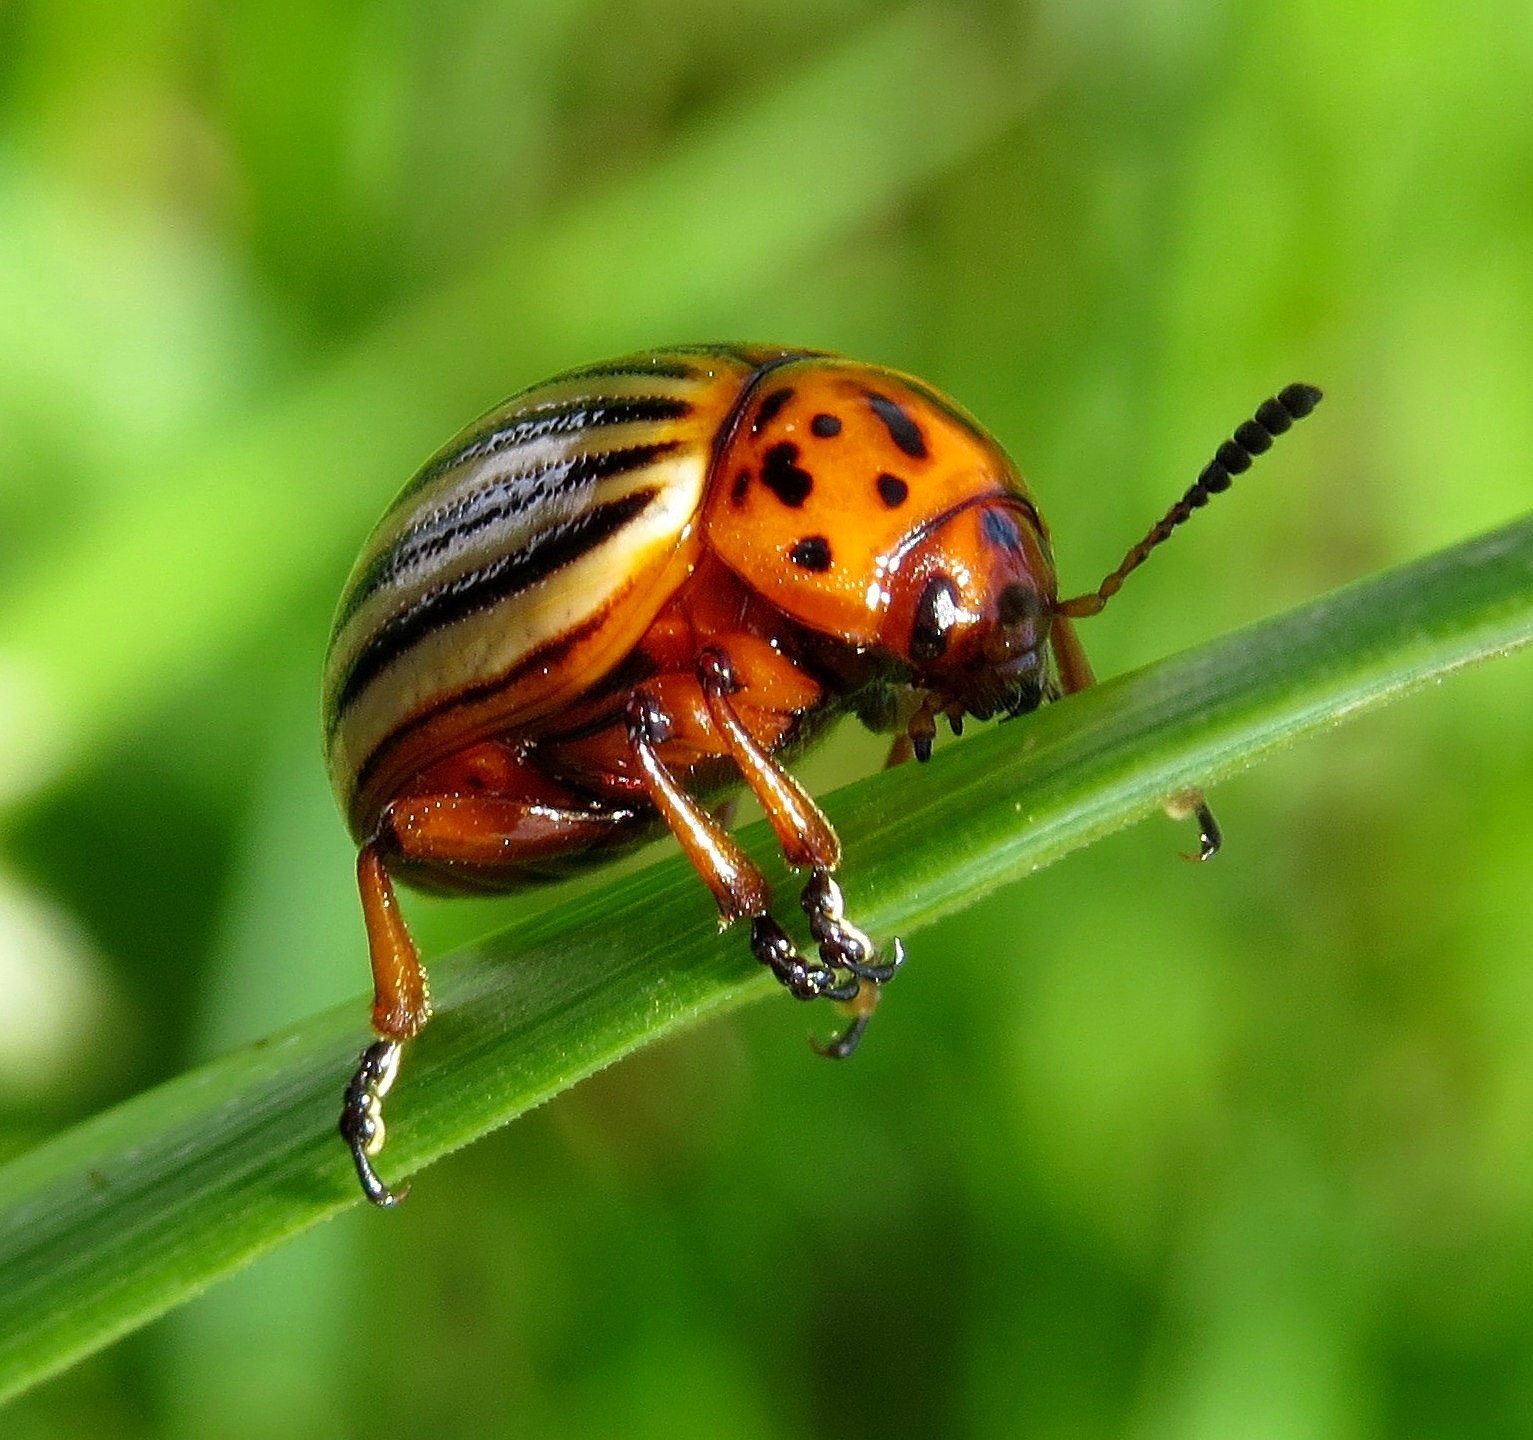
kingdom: Animalia
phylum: Arthropoda
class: Insecta
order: Coleoptera
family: Chrysomelidae
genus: Leptinotarsa
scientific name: Leptinotarsa decemlineata
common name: Colorado potato beetle
